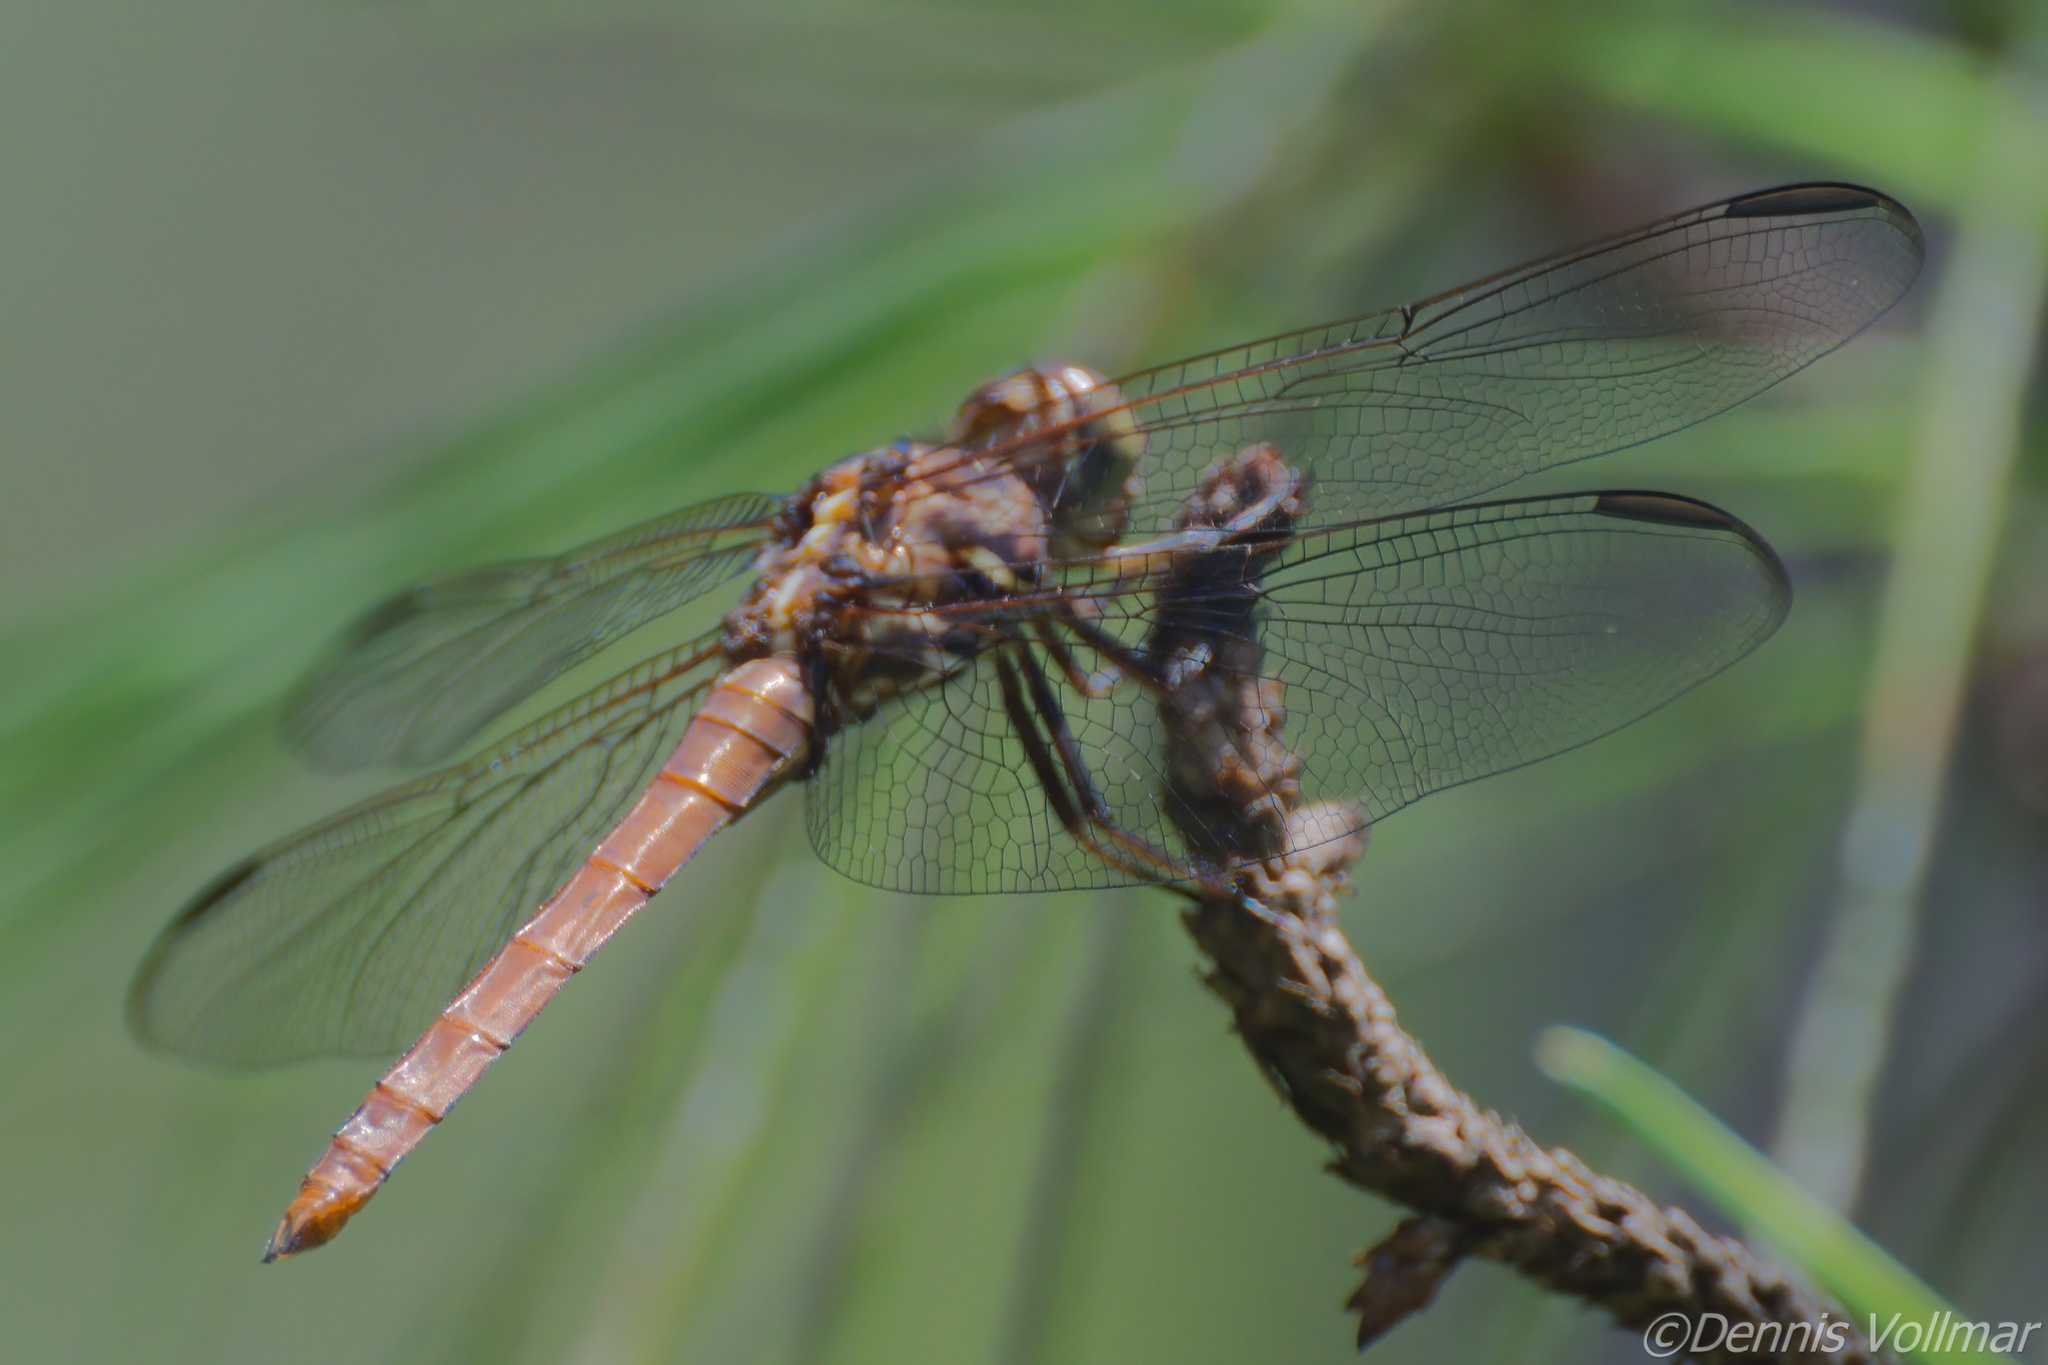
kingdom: Animalia
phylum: Arthropoda
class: Insecta
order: Odonata
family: Libellulidae
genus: Orthemis
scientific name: Orthemis ferruginea
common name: Roseate skimmer
